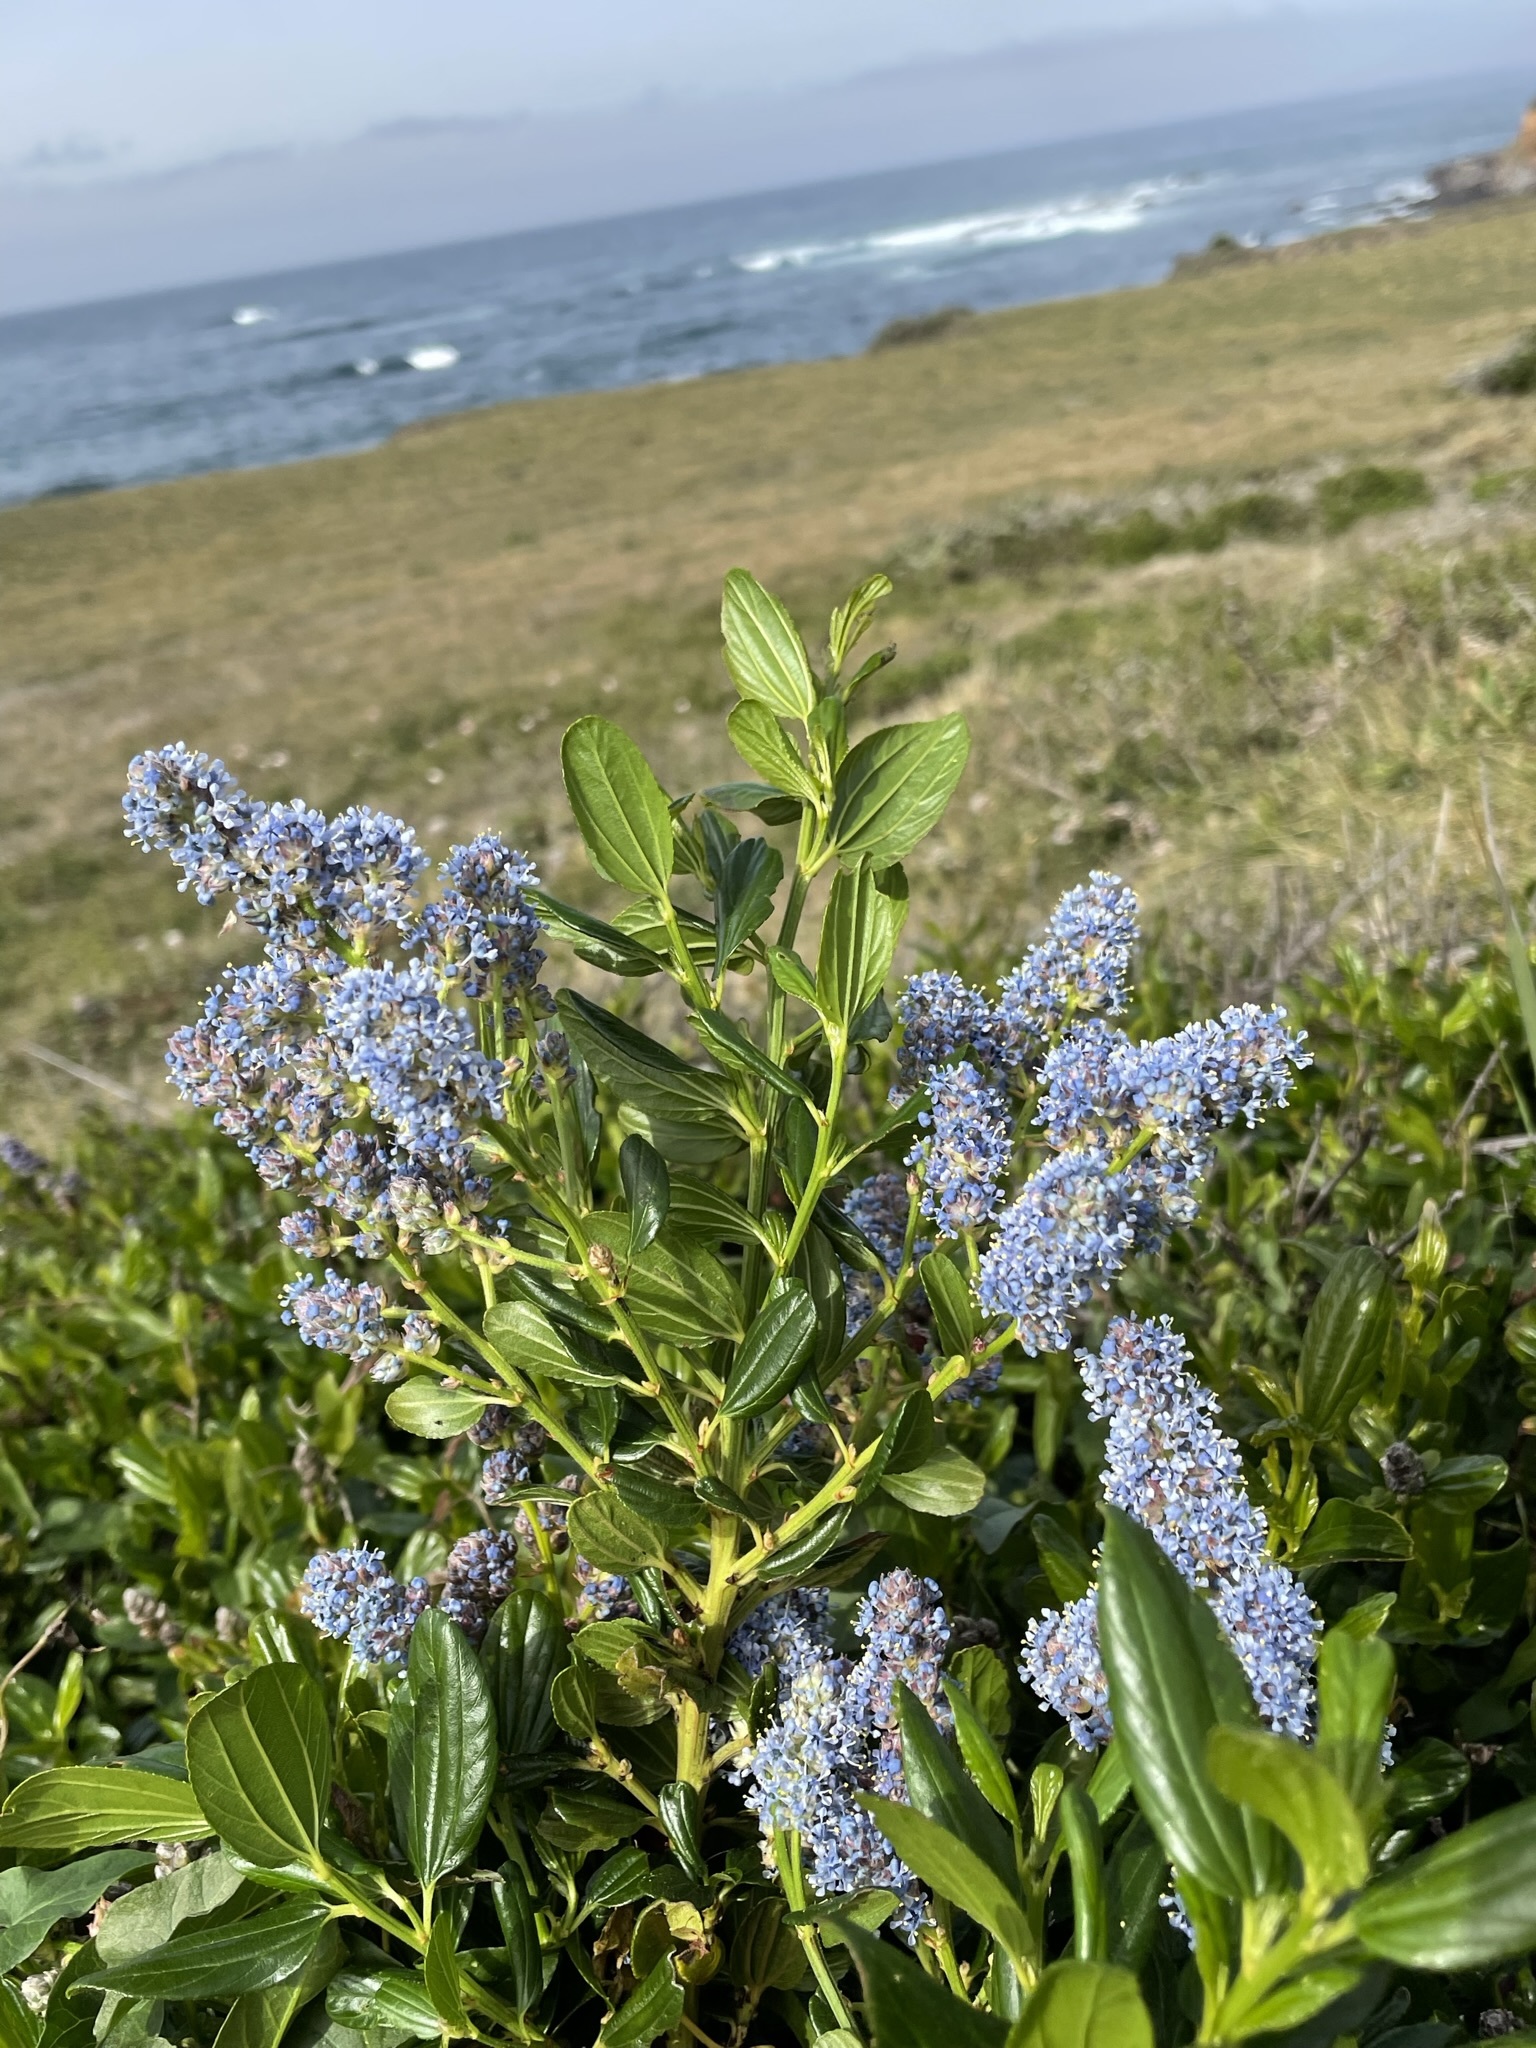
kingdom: Plantae
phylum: Tracheophyta
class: Magnoliopsida
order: Rosales
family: Rhamnaceae
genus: Ceanothus
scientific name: Ceanothus thyrsiflorus
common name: California-lilac
